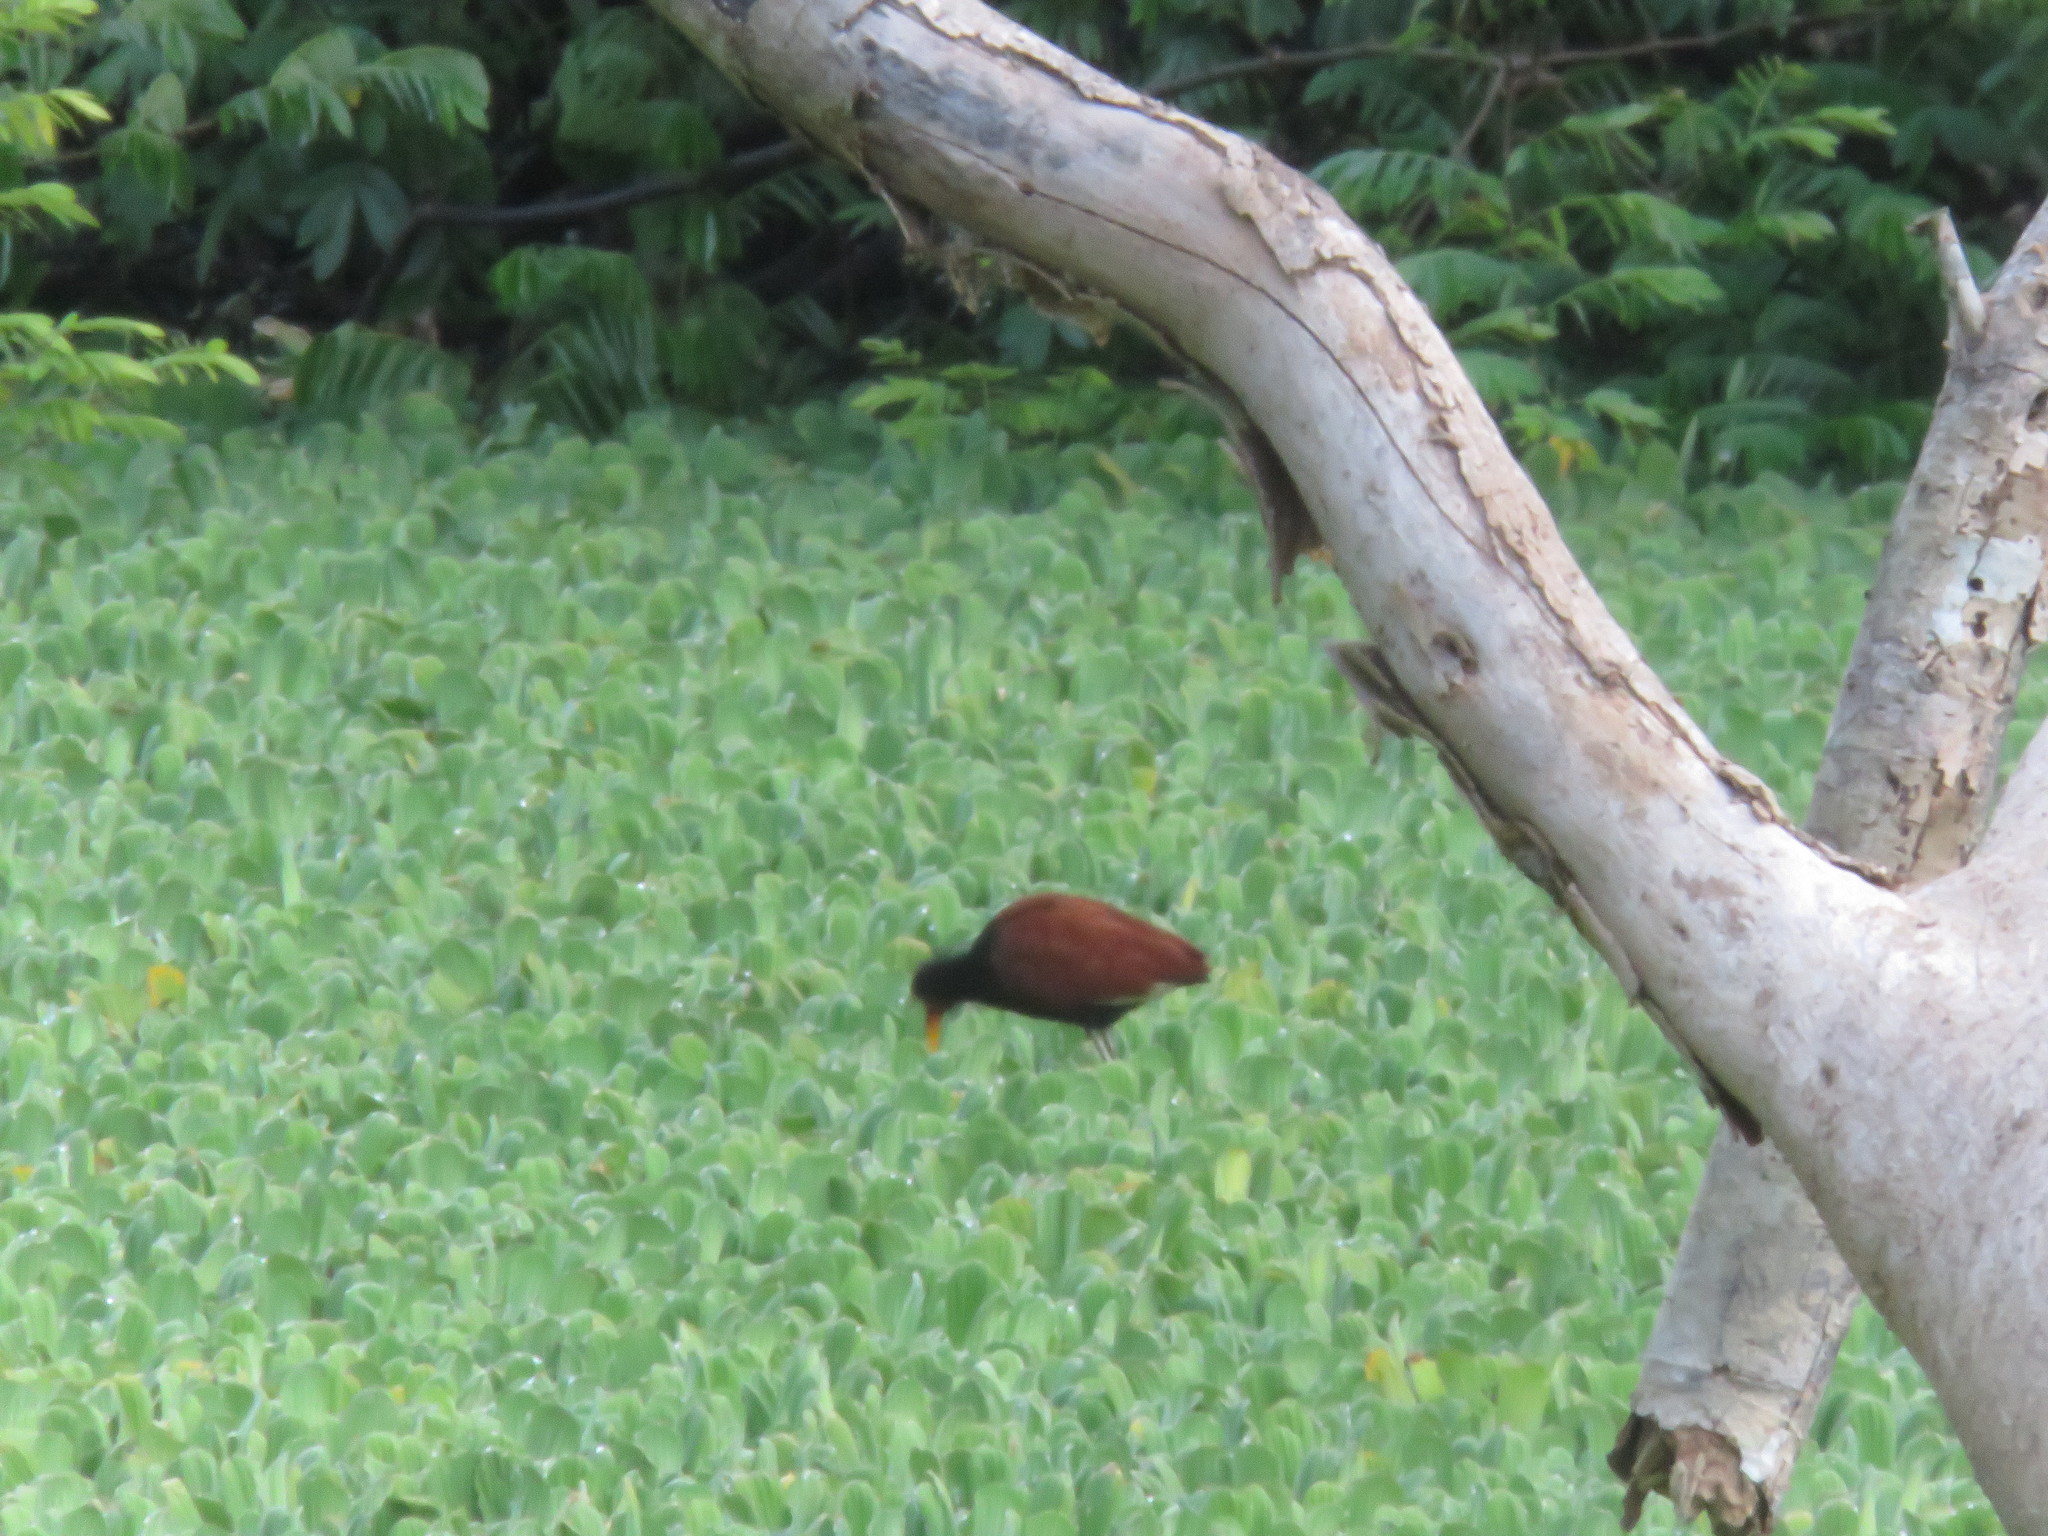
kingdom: Animalia
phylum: Chordata
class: Aves
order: Charadriiformes
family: Jacanidae
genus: Jacana
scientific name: Jacana jacana
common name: Wattled jacana
